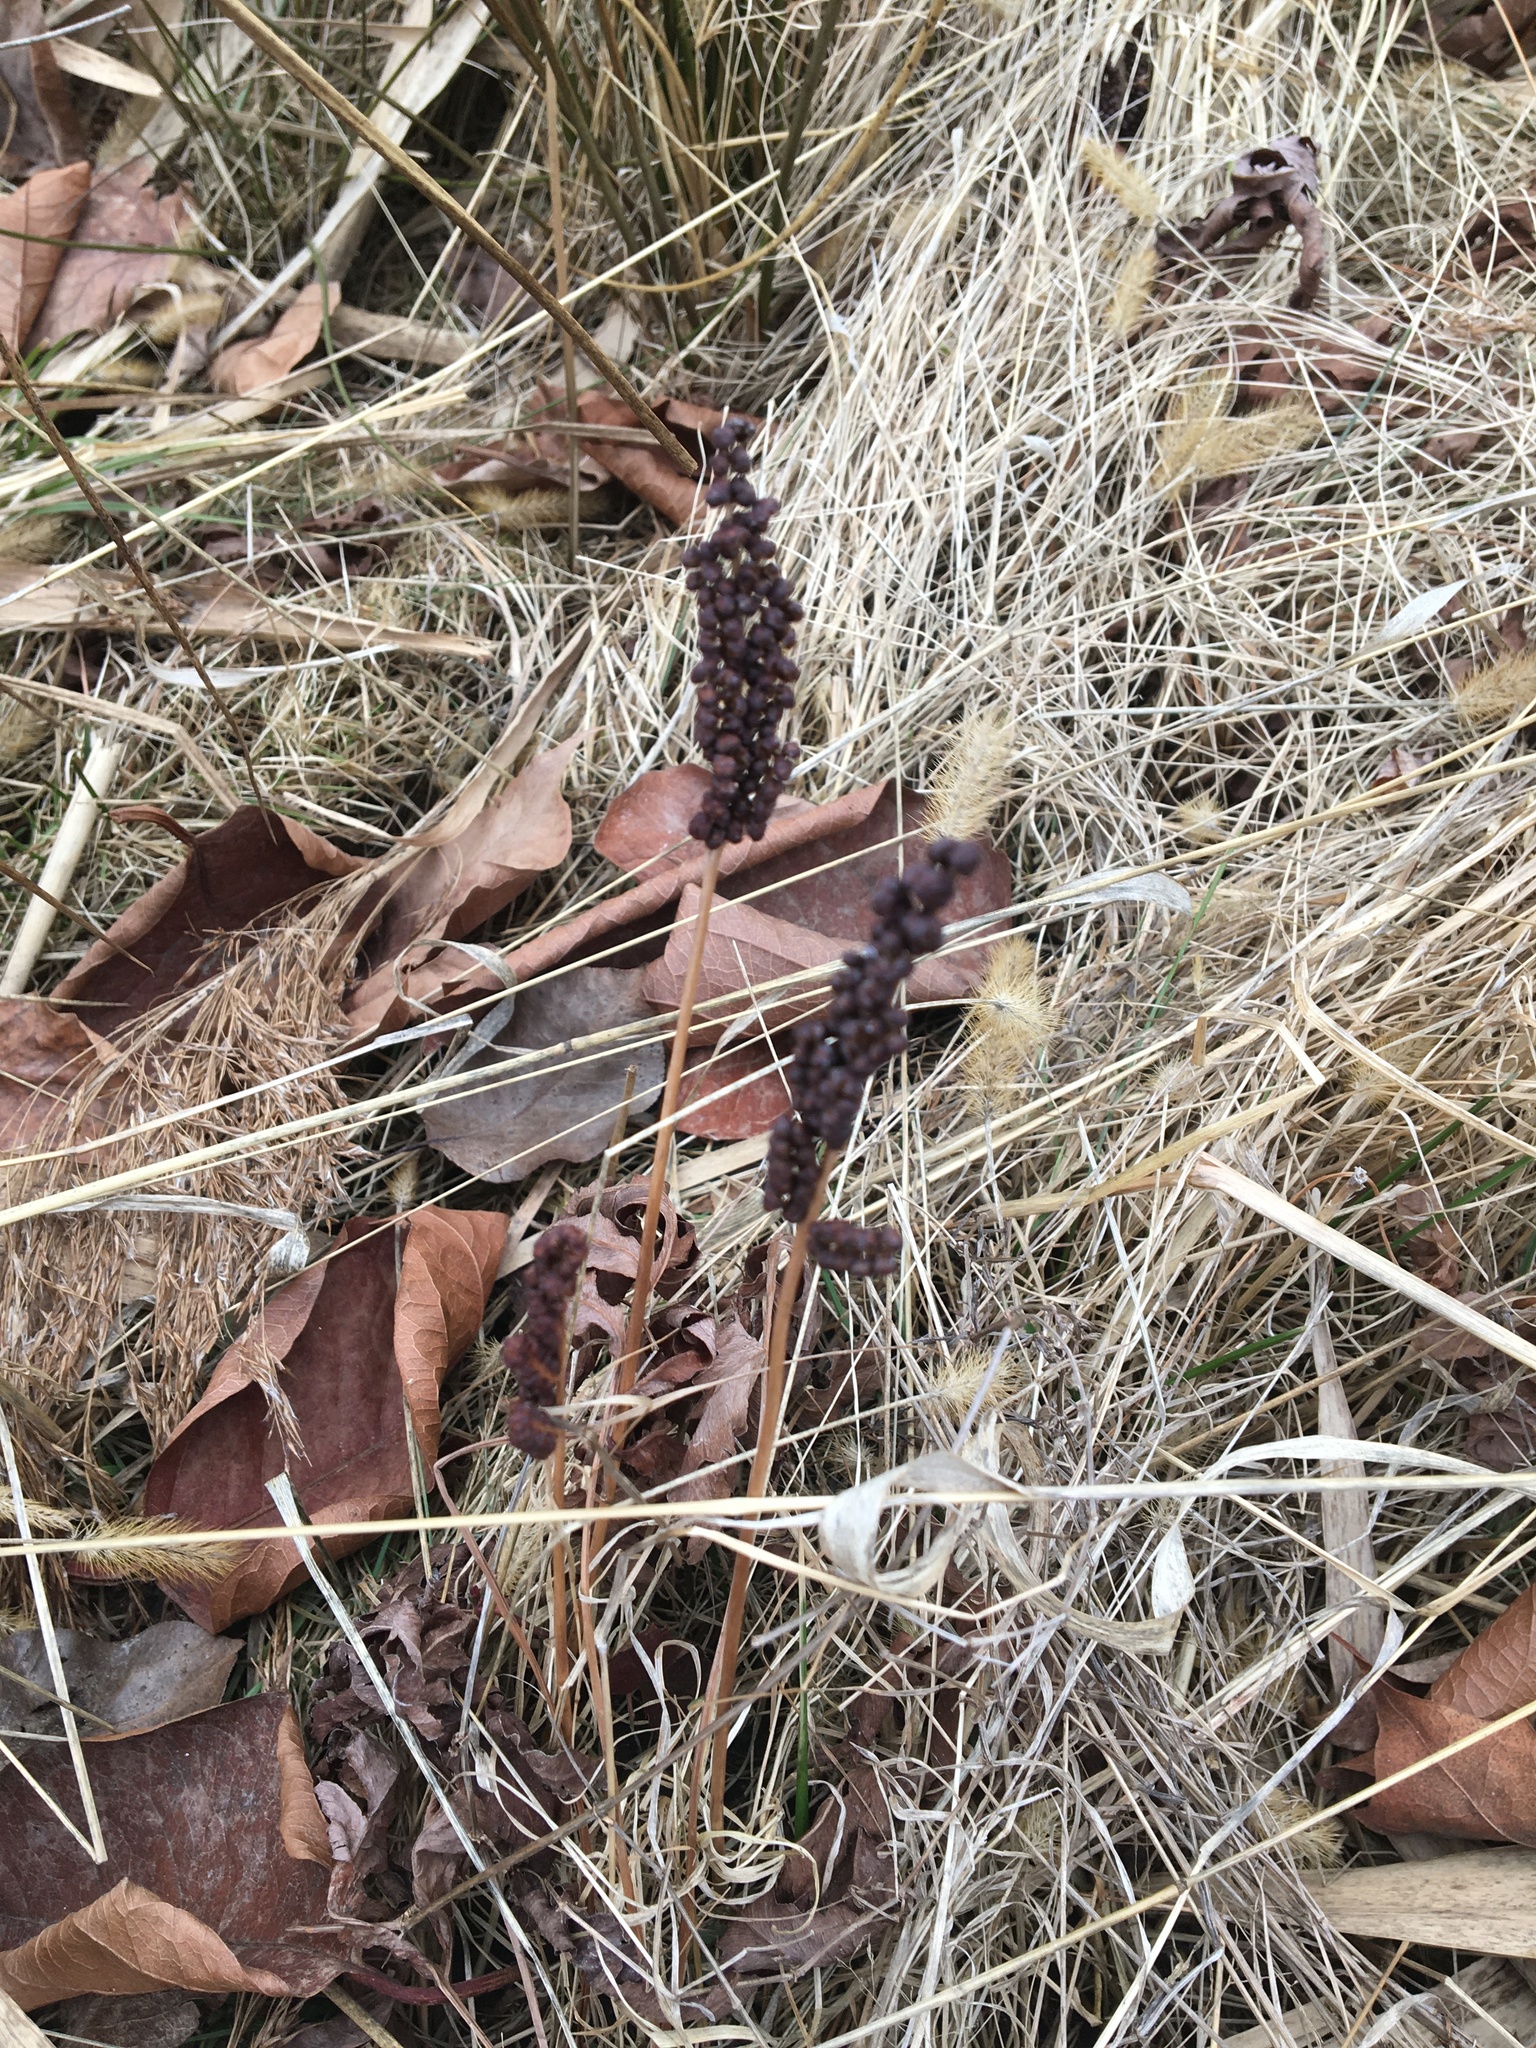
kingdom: Plantae
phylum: Tracheophyta
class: Polypodiopsida
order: Polypodiales
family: Onocleaceae
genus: Onoclea
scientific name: Onoclea sensibilis
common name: Sensitive fern
